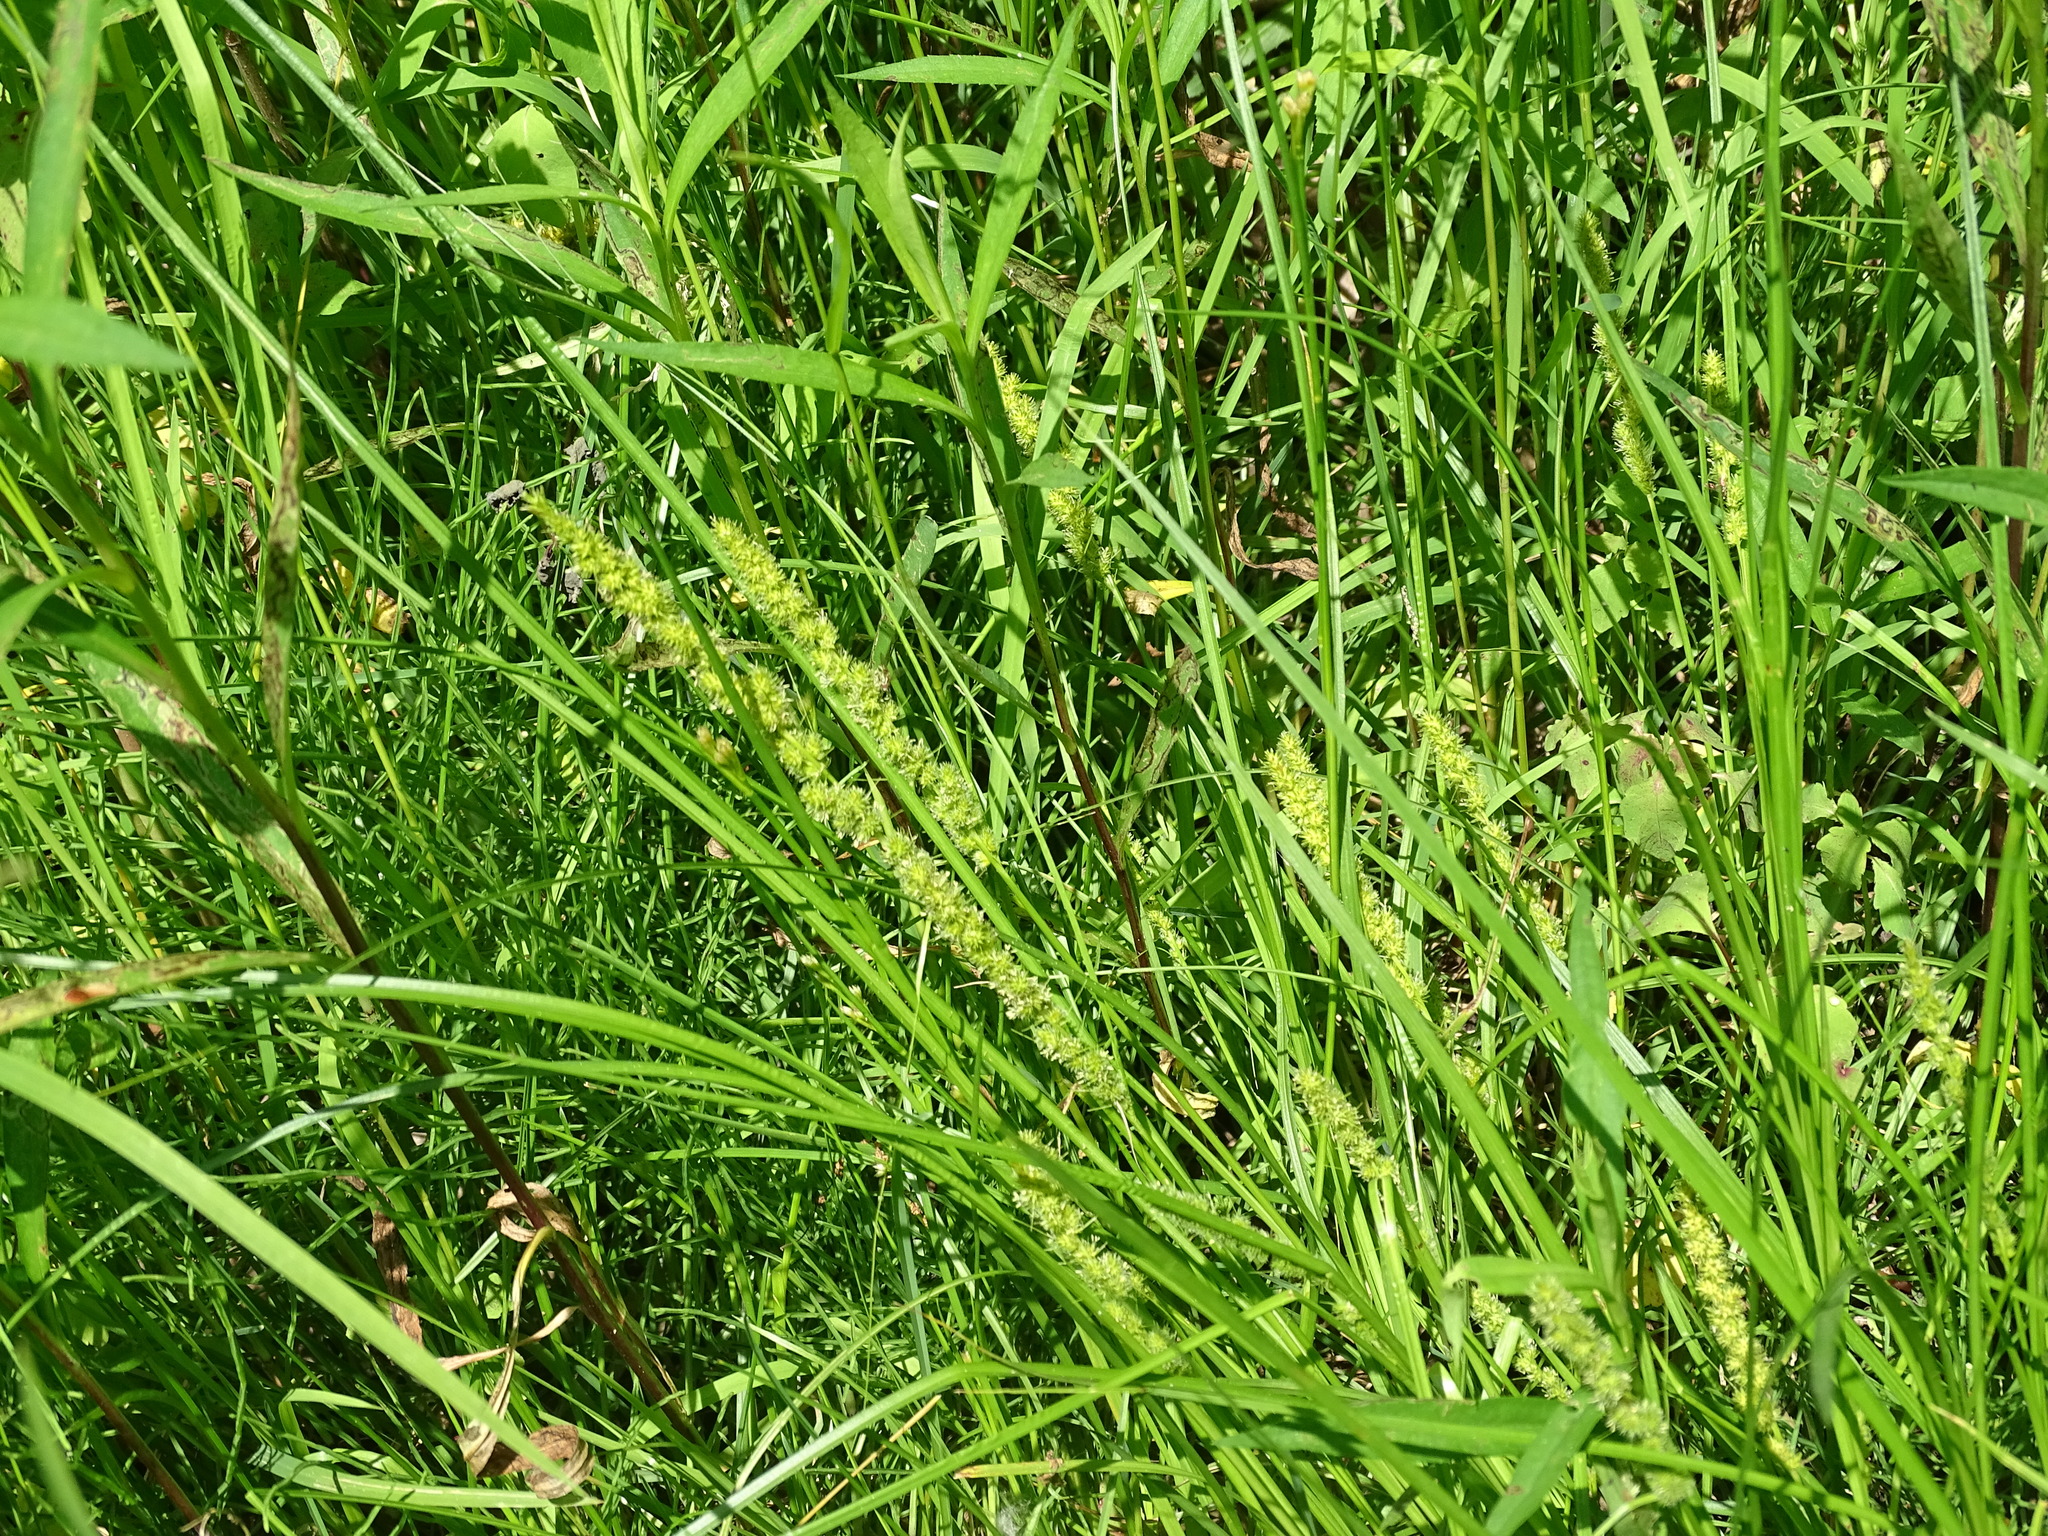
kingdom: Plantae
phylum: Tracheophyta
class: Liliopsida
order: Poales
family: Cyperaceae
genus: Carex
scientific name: Carex vulpinoidea
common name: American fox-sedge
